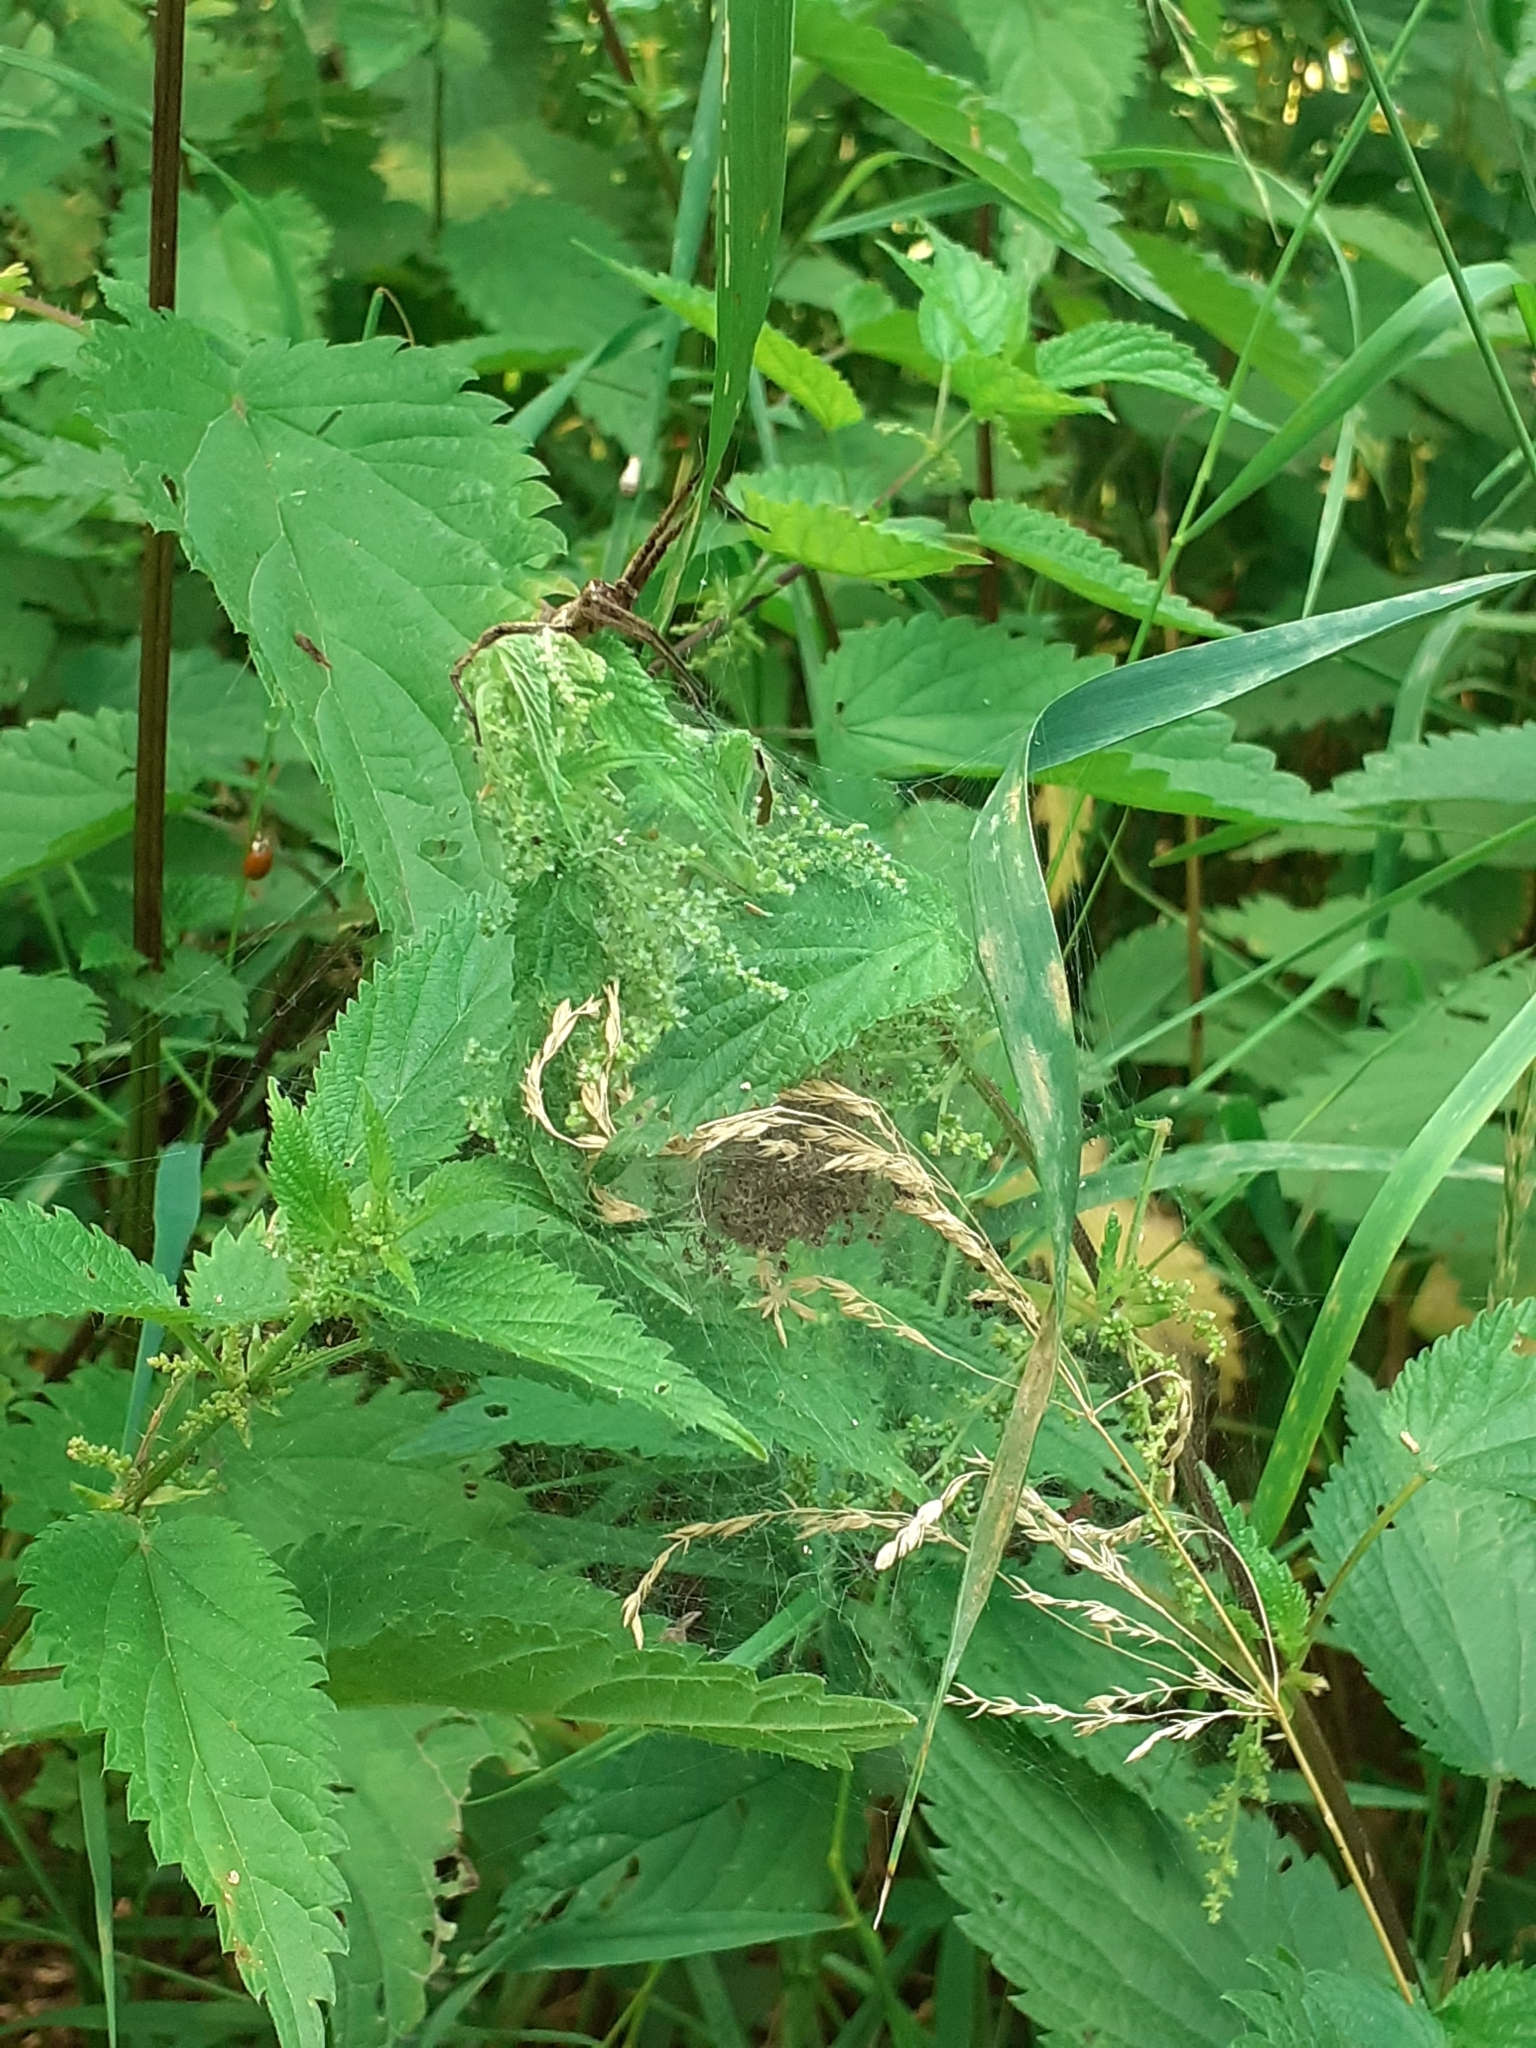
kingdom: Animalia
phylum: Arthropoda
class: Arachnida
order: Araneae
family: Pisauridae
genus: Pisaura
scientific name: Pisaura mirabilis
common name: Tent spider
